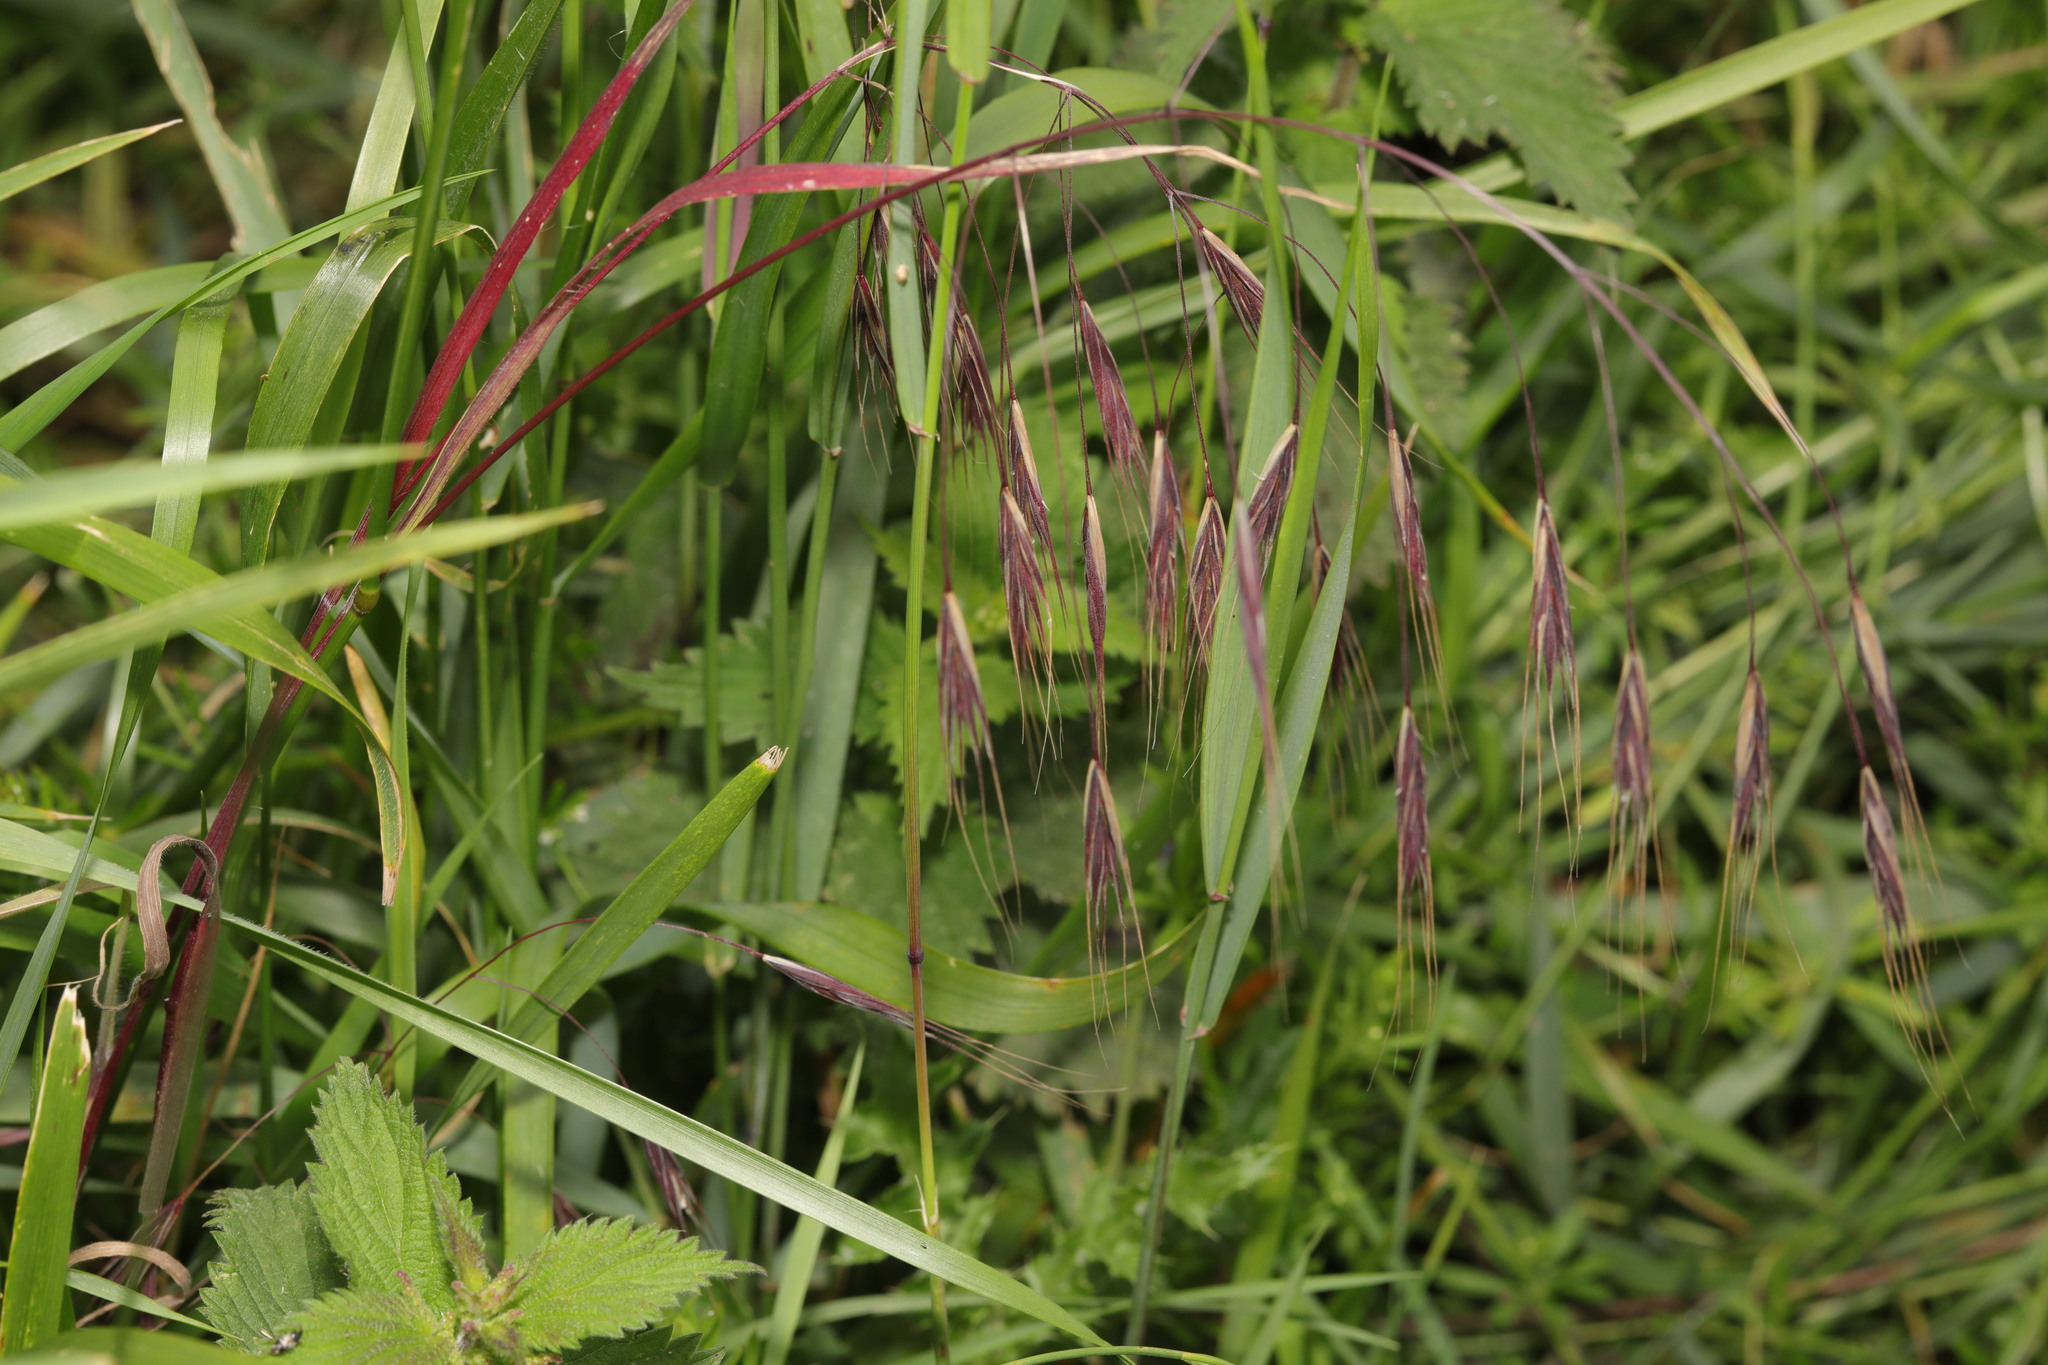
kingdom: Plantae
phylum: Tracheophyta
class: Liliopsida
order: Poales
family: Poaceae
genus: Bromus
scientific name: Bromus sterilis
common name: Poverty brome
